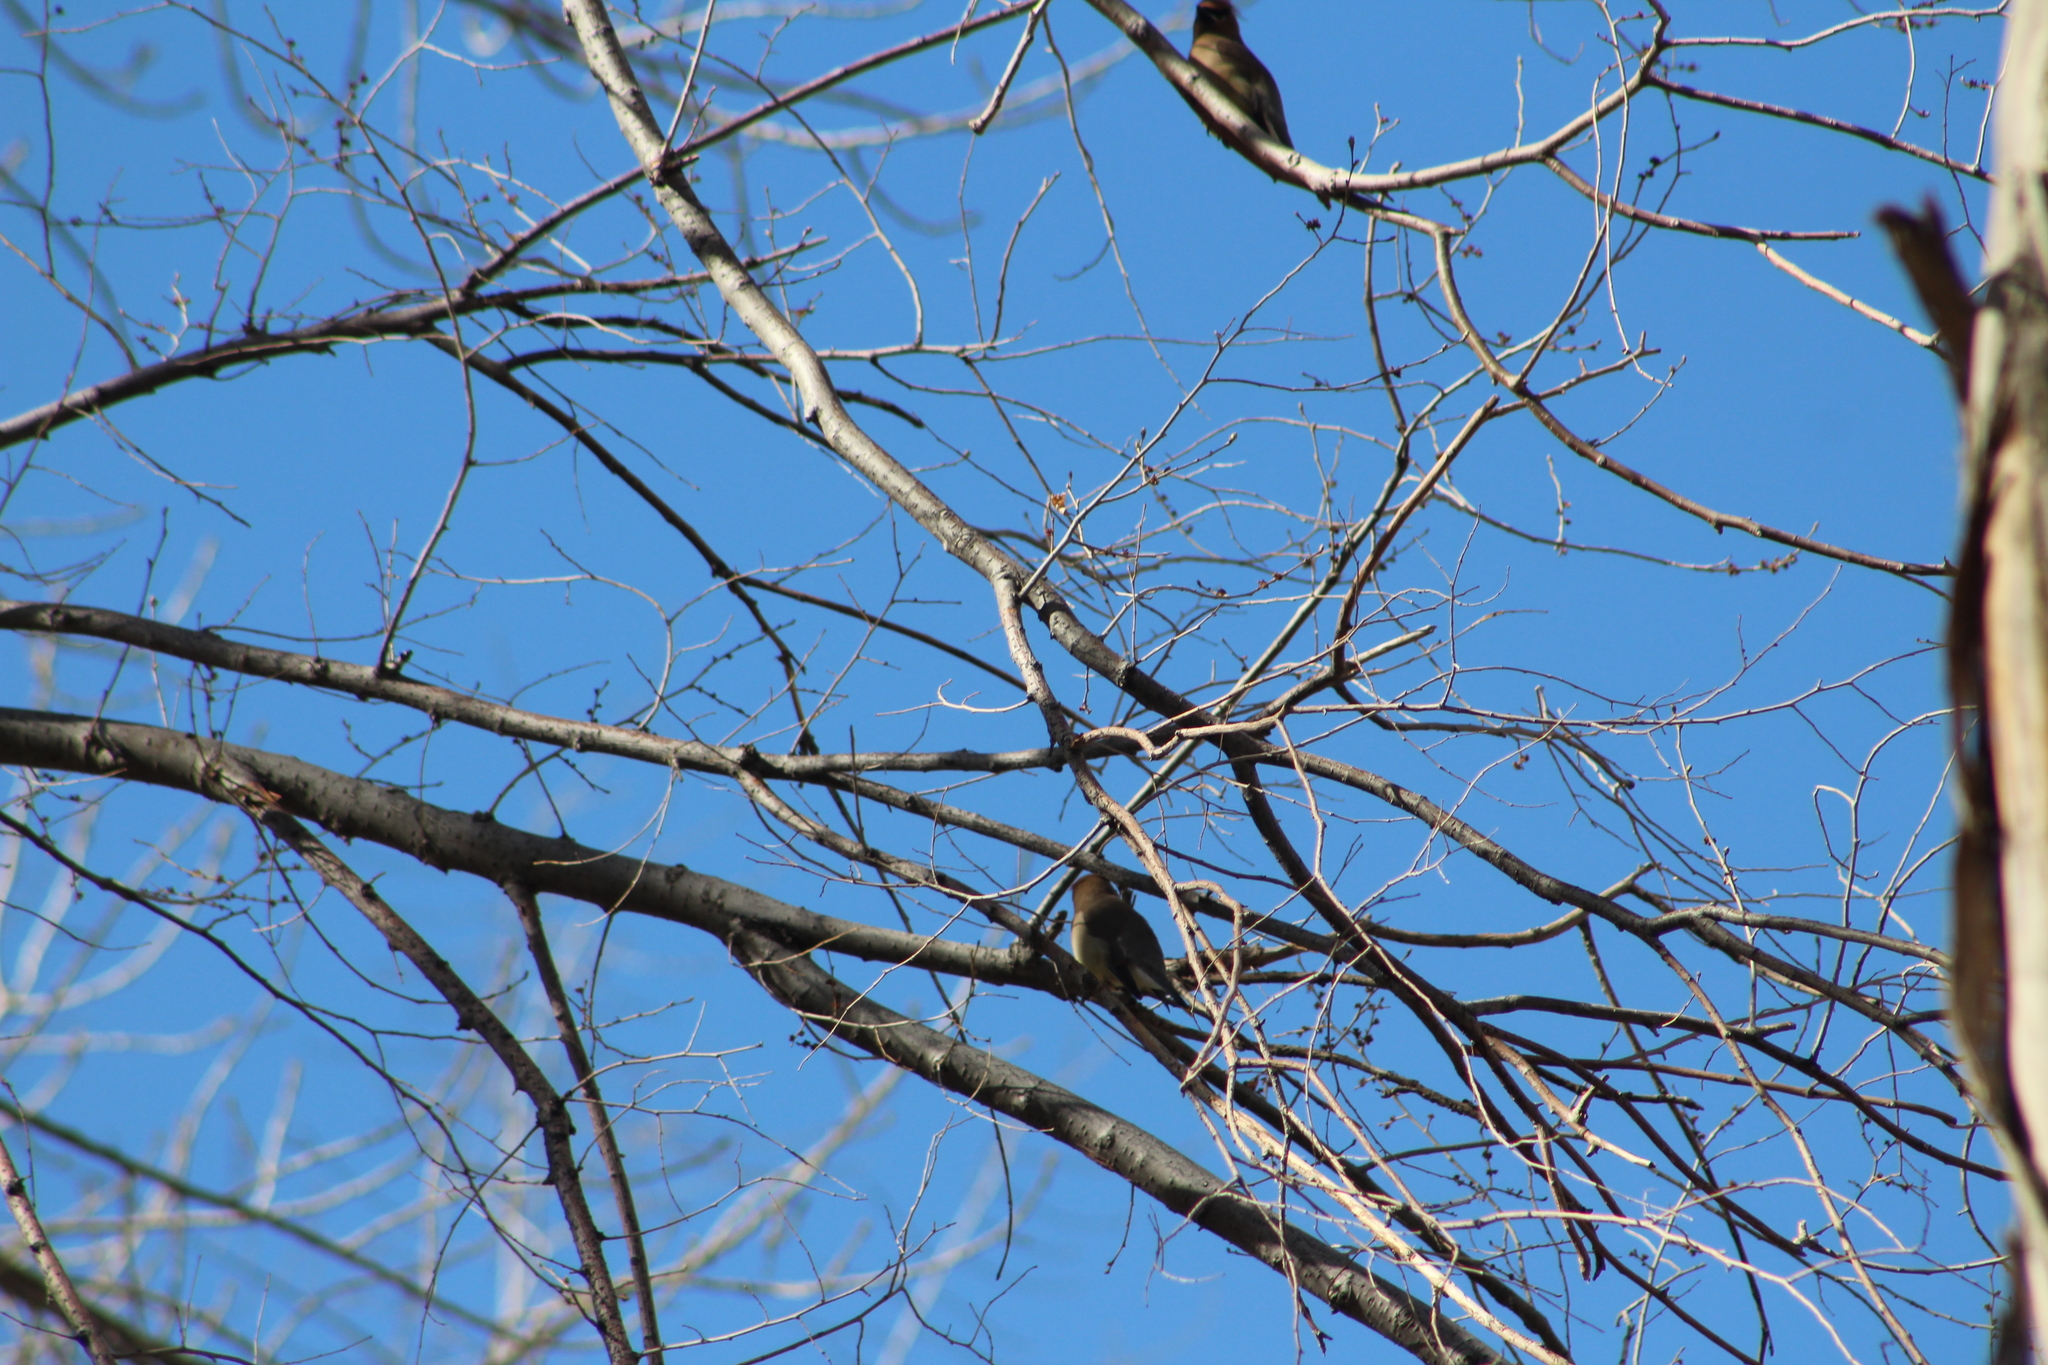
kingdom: Animalia
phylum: Chordata
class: Aves
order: Passeriformes
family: Bombycillidae
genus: Bombycilla
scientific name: Bombycilla cedrorum
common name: Cedar waxwing
